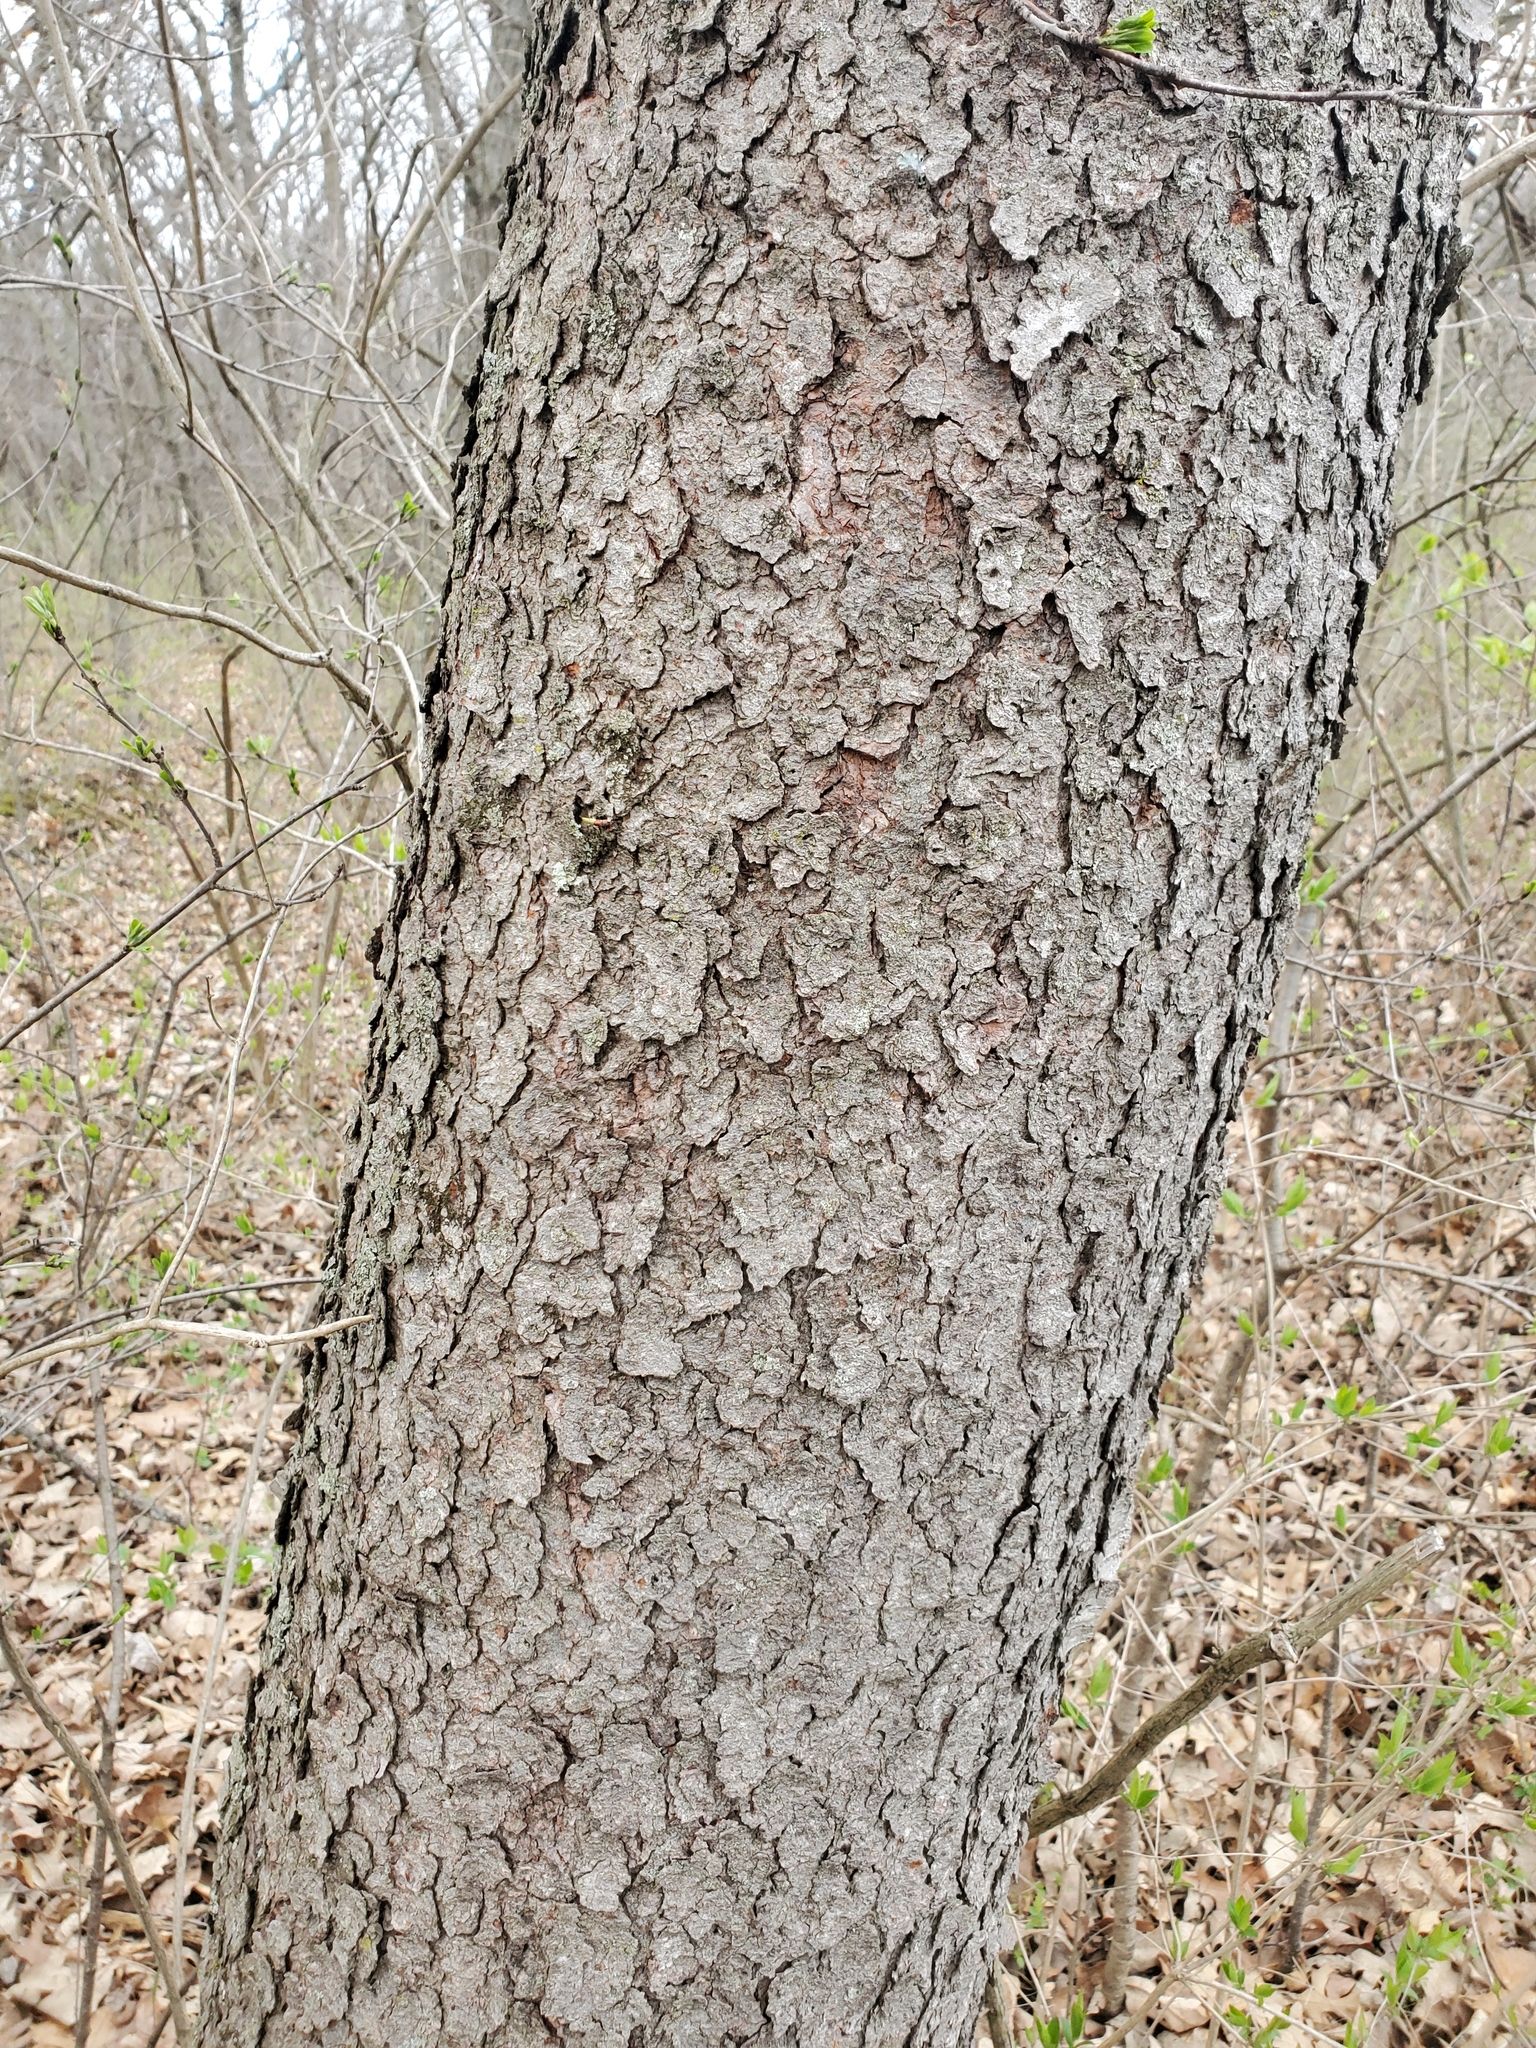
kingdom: Plantae
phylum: Tracheophyta
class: Magnoliopsida
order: Rosales
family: Rosaceae
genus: Prunus
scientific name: Prunus serotina
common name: Black cherry
